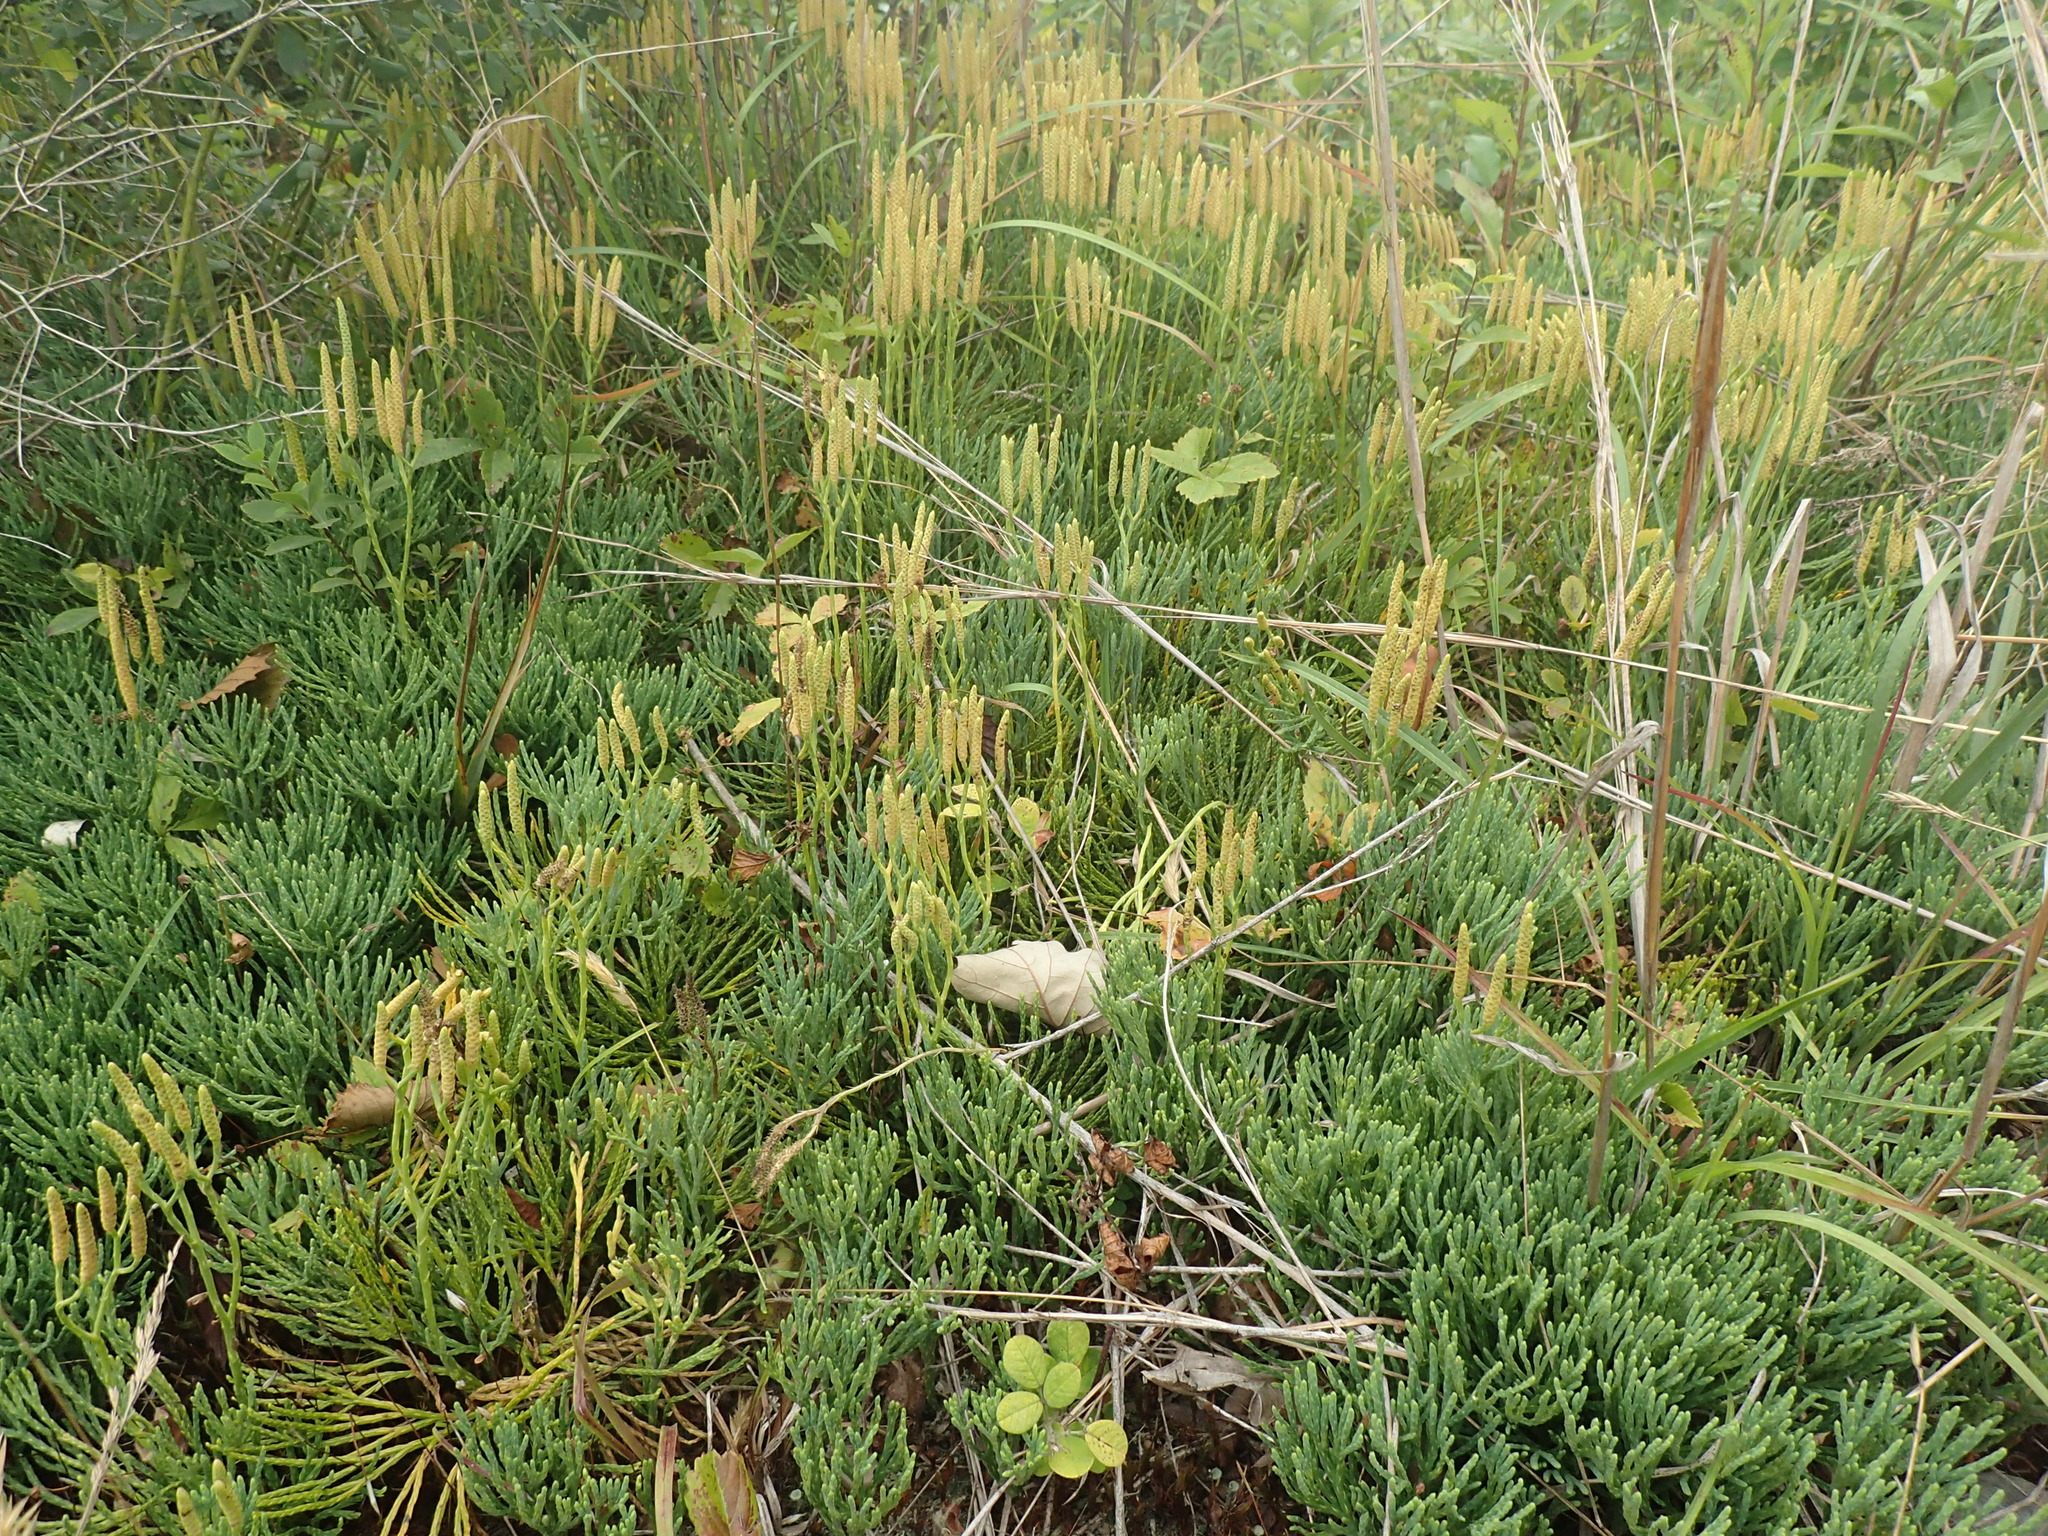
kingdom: Plantae
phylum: Tracheophyta
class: Lycopodiopsida
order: Lycopodiales
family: Lycopodiaceae
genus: Diphasiastrum
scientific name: Diphasiastrum tristachyum
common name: Blue ground-cedar
